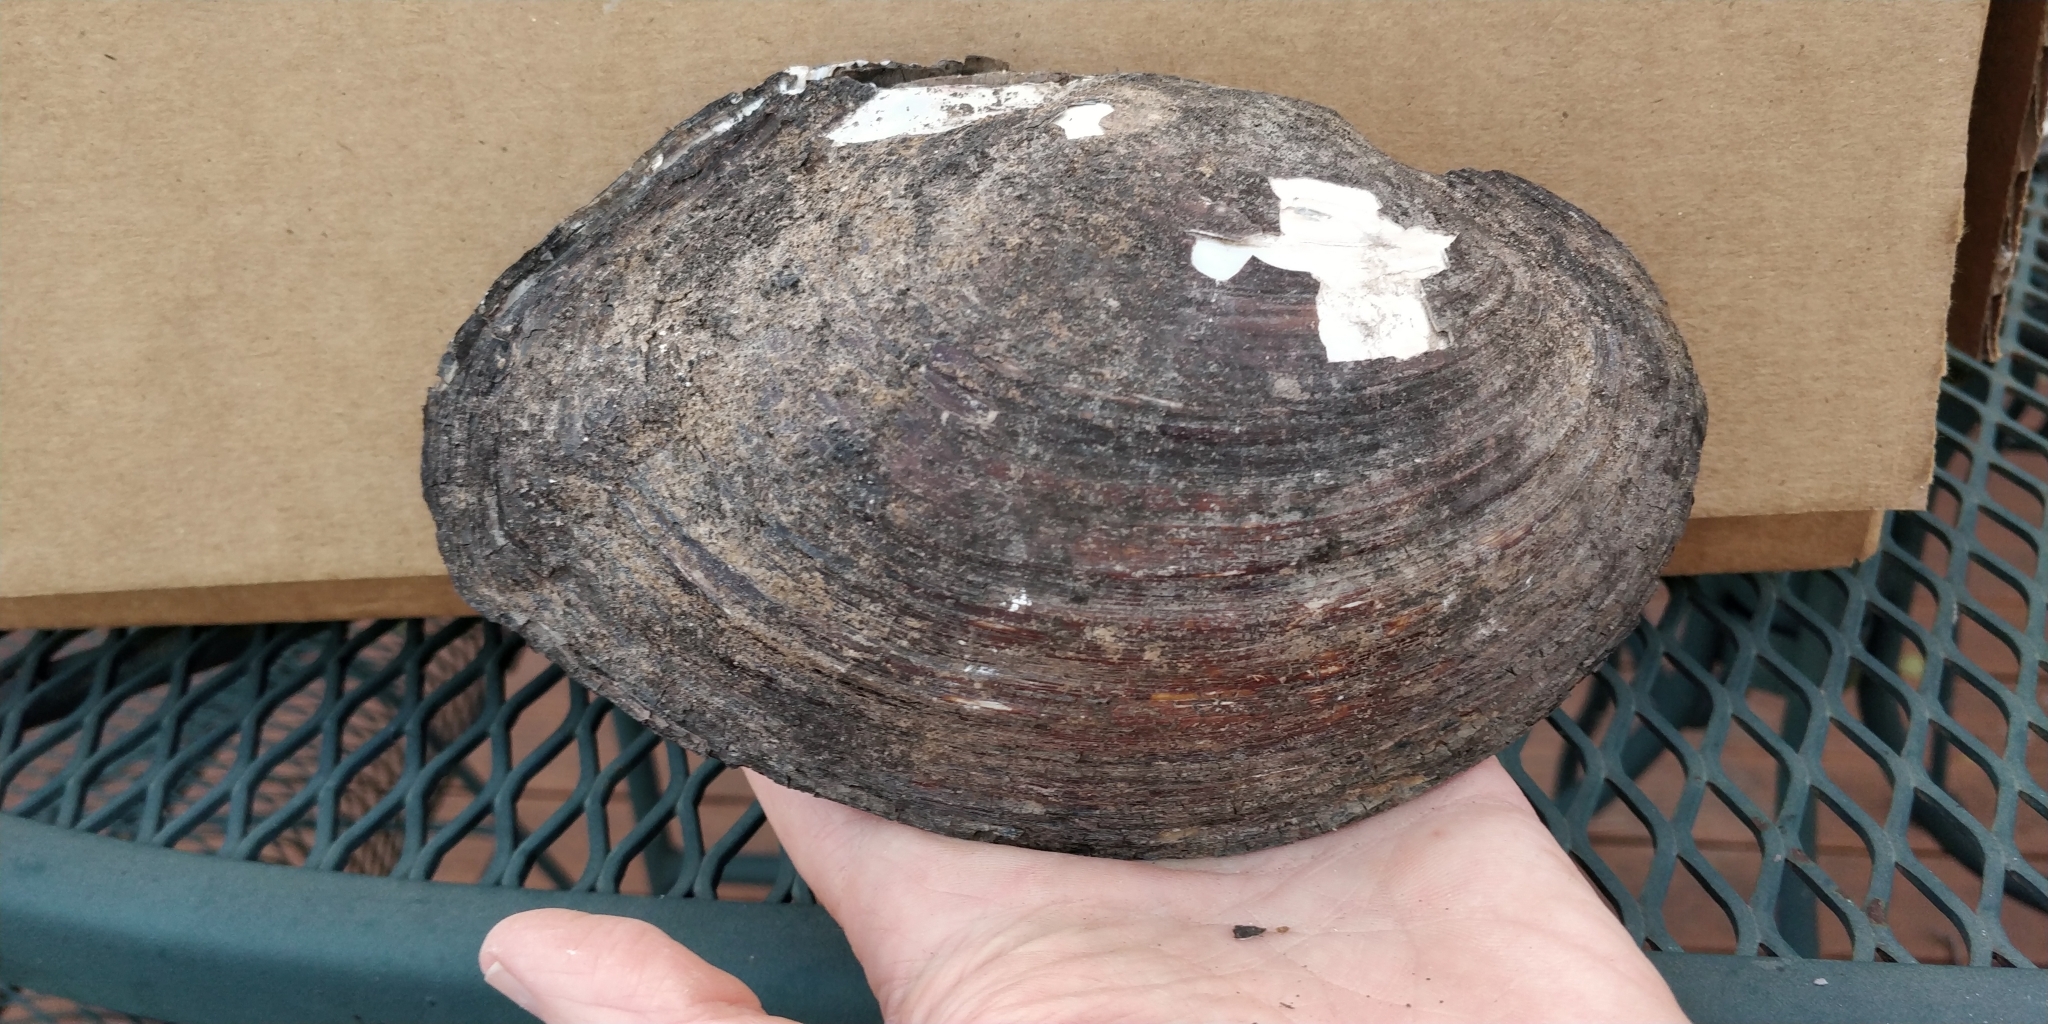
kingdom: Animalia
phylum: Mollusca
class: Bivalvia
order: Unionida
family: Unionidae
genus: Lasmigona
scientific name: Lasmigona complanata
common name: White heelsplitter
